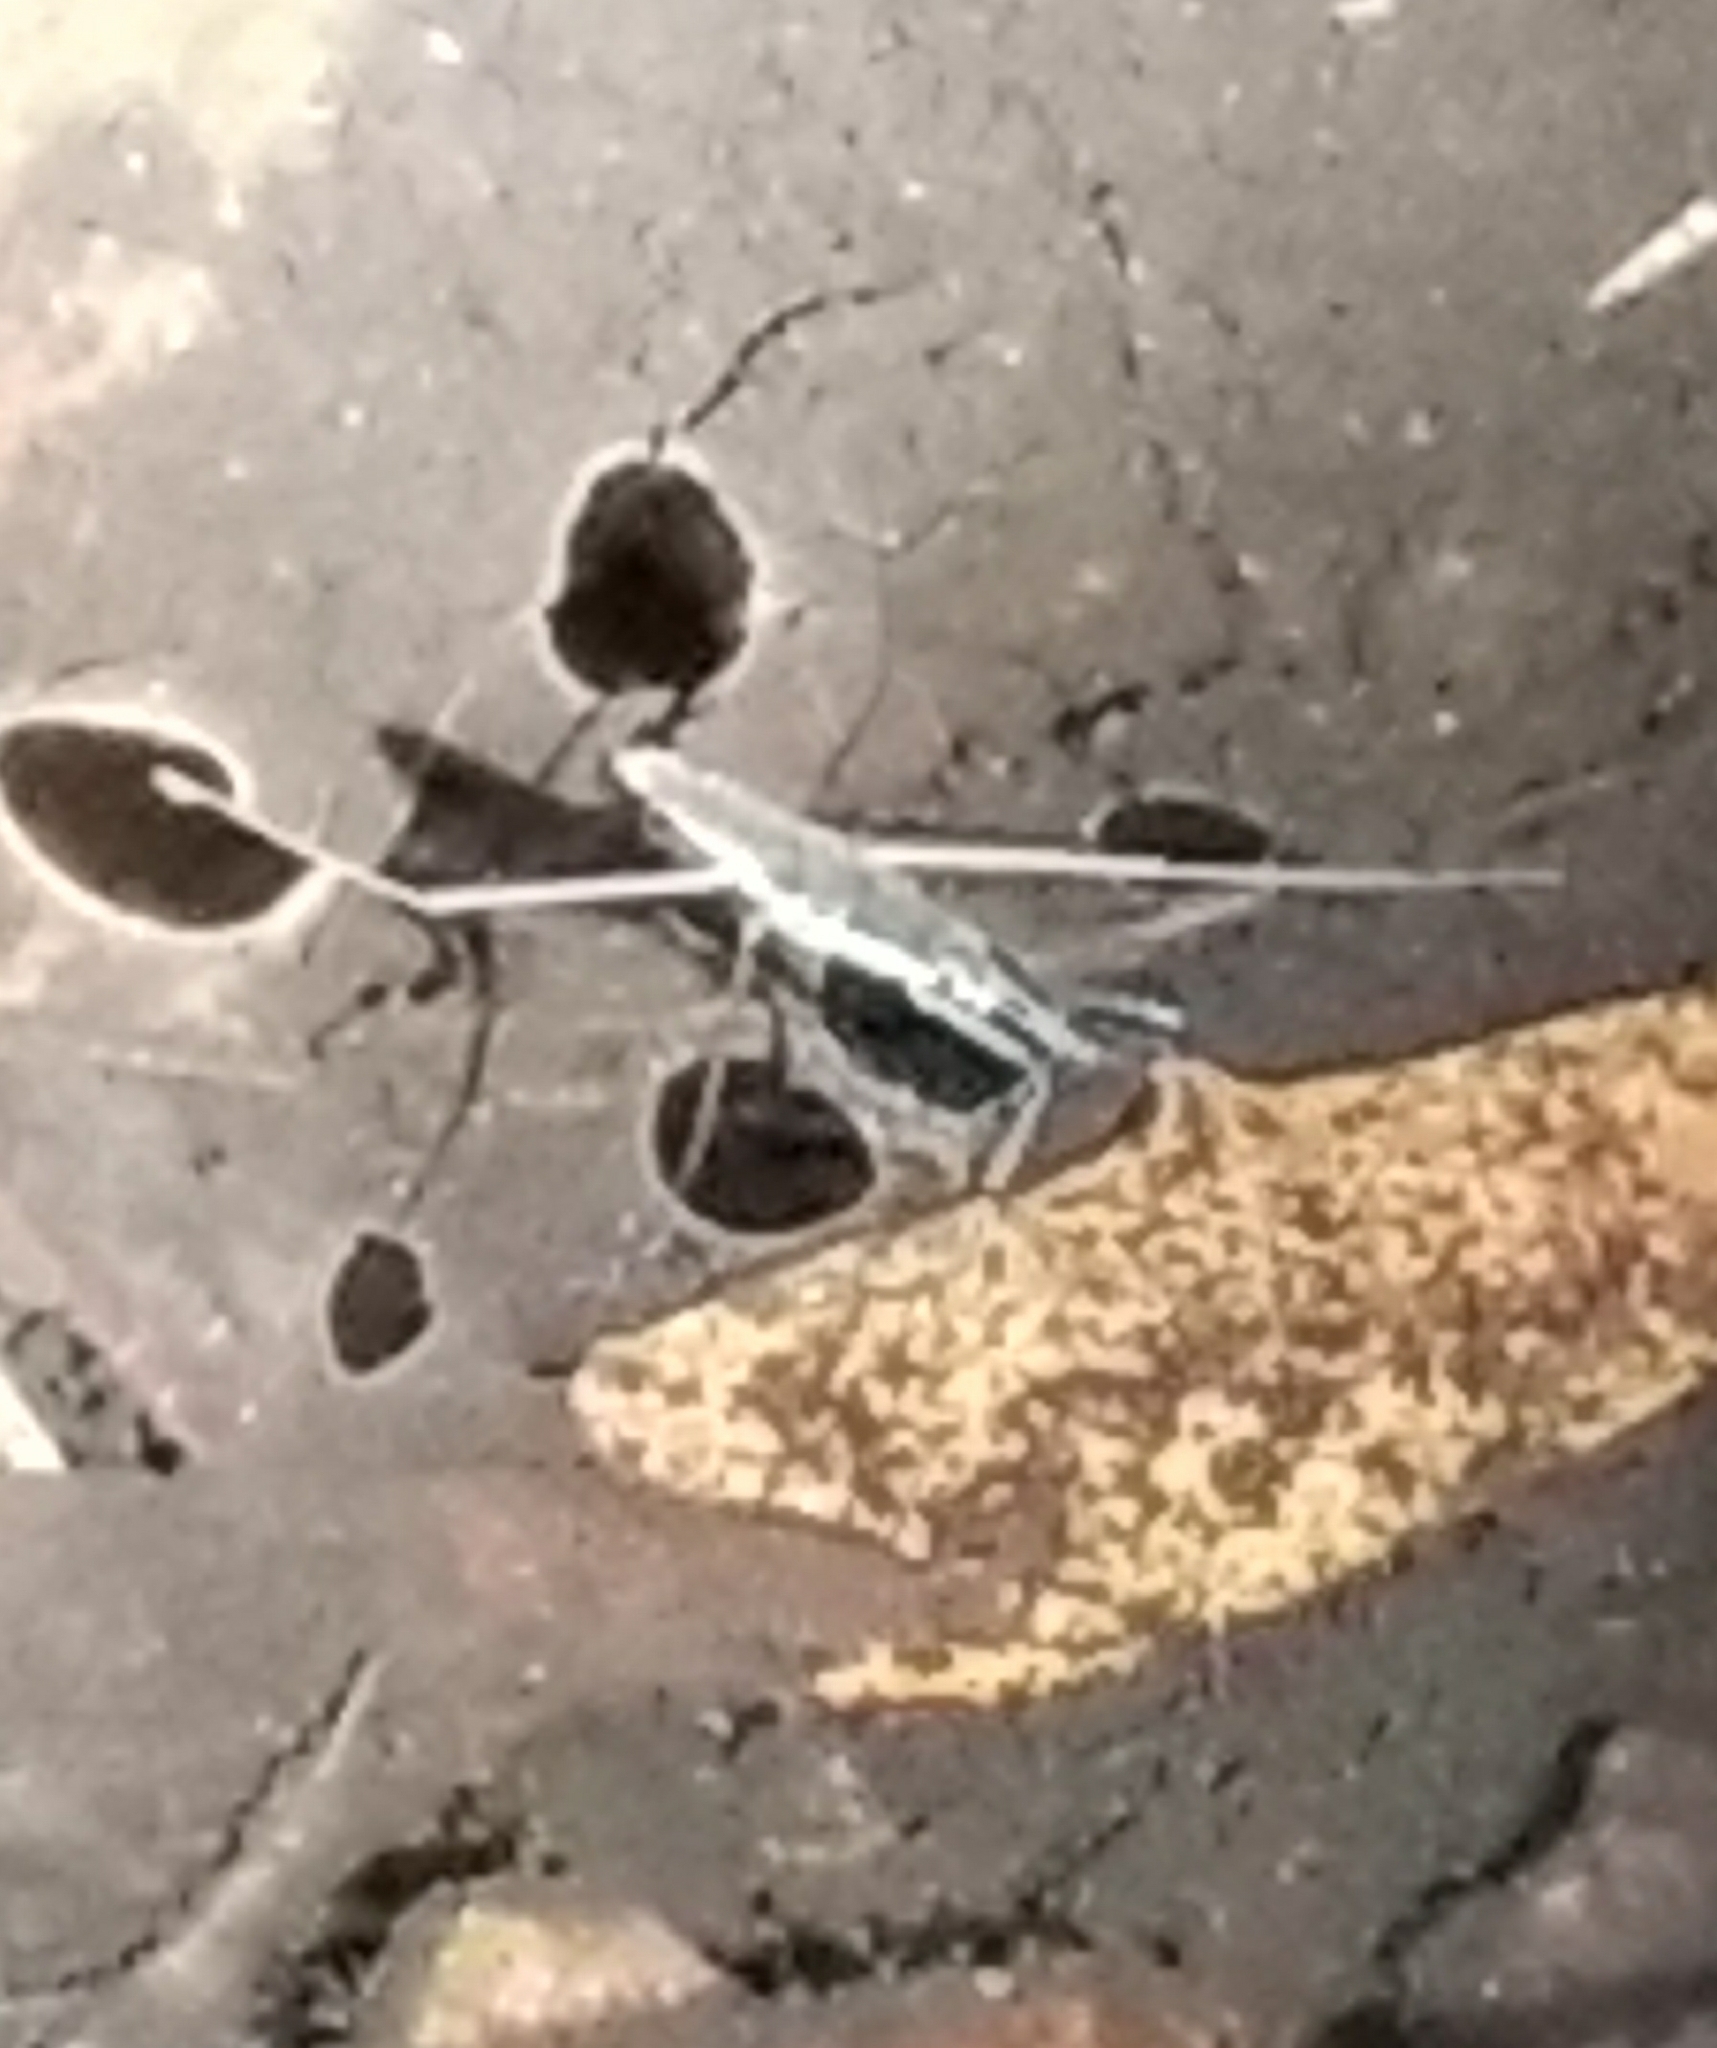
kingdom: Animalia
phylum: Arthropoda
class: Insecta
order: Hemiptera
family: Gerridae
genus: Aquarius
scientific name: Aquarius remigis
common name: Common water strider
